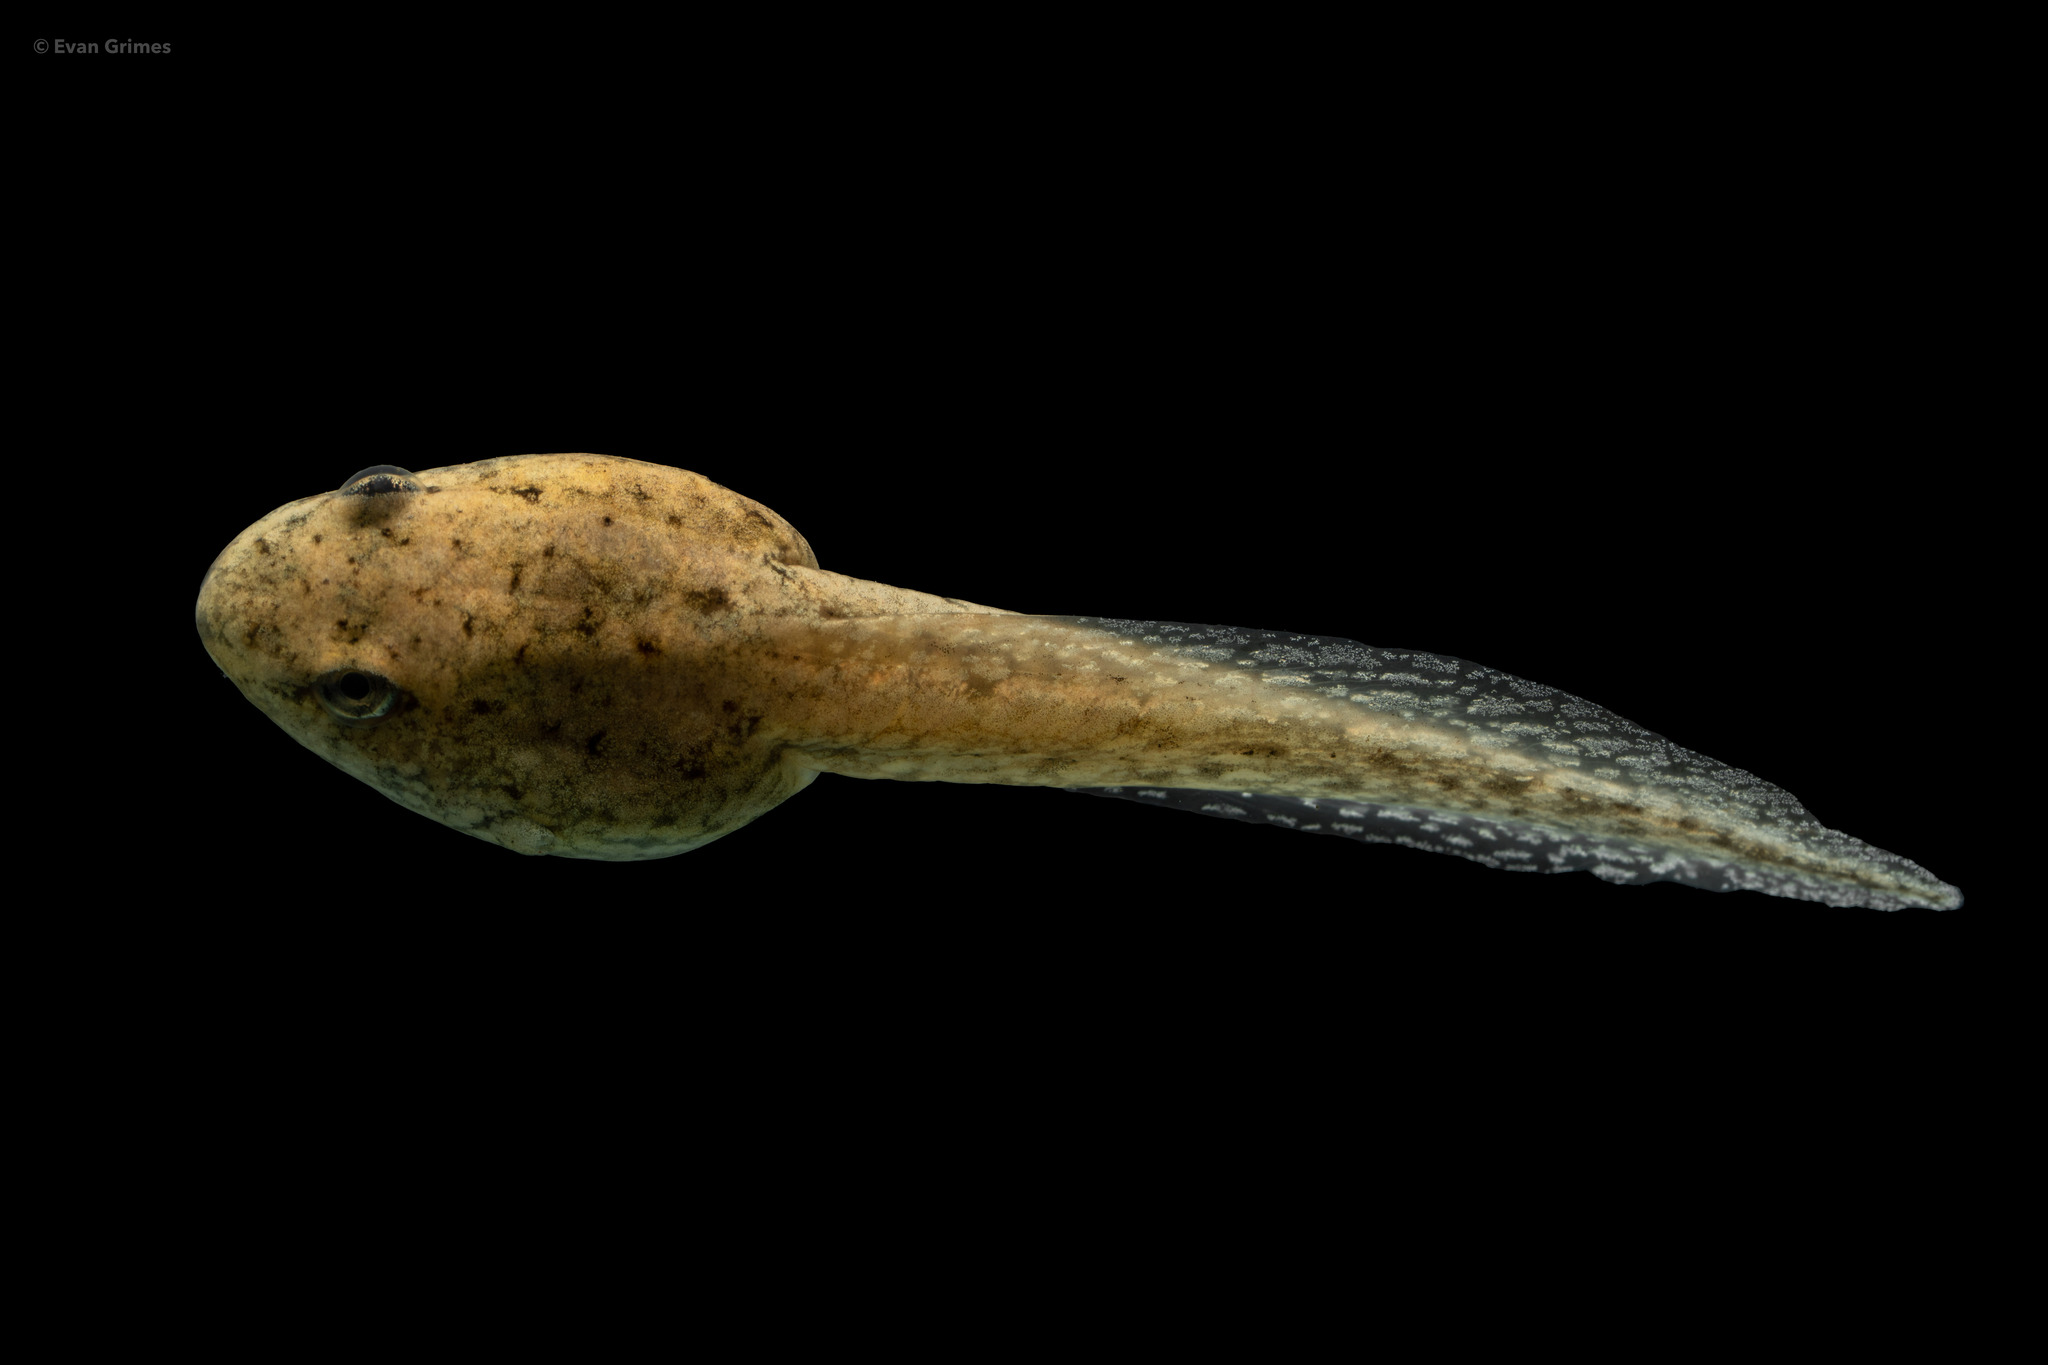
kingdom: Animalia
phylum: Chordata
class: Amphibia
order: Anura
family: Ranidae
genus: Lithobates
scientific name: Lithobates clamitans
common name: Green frog
